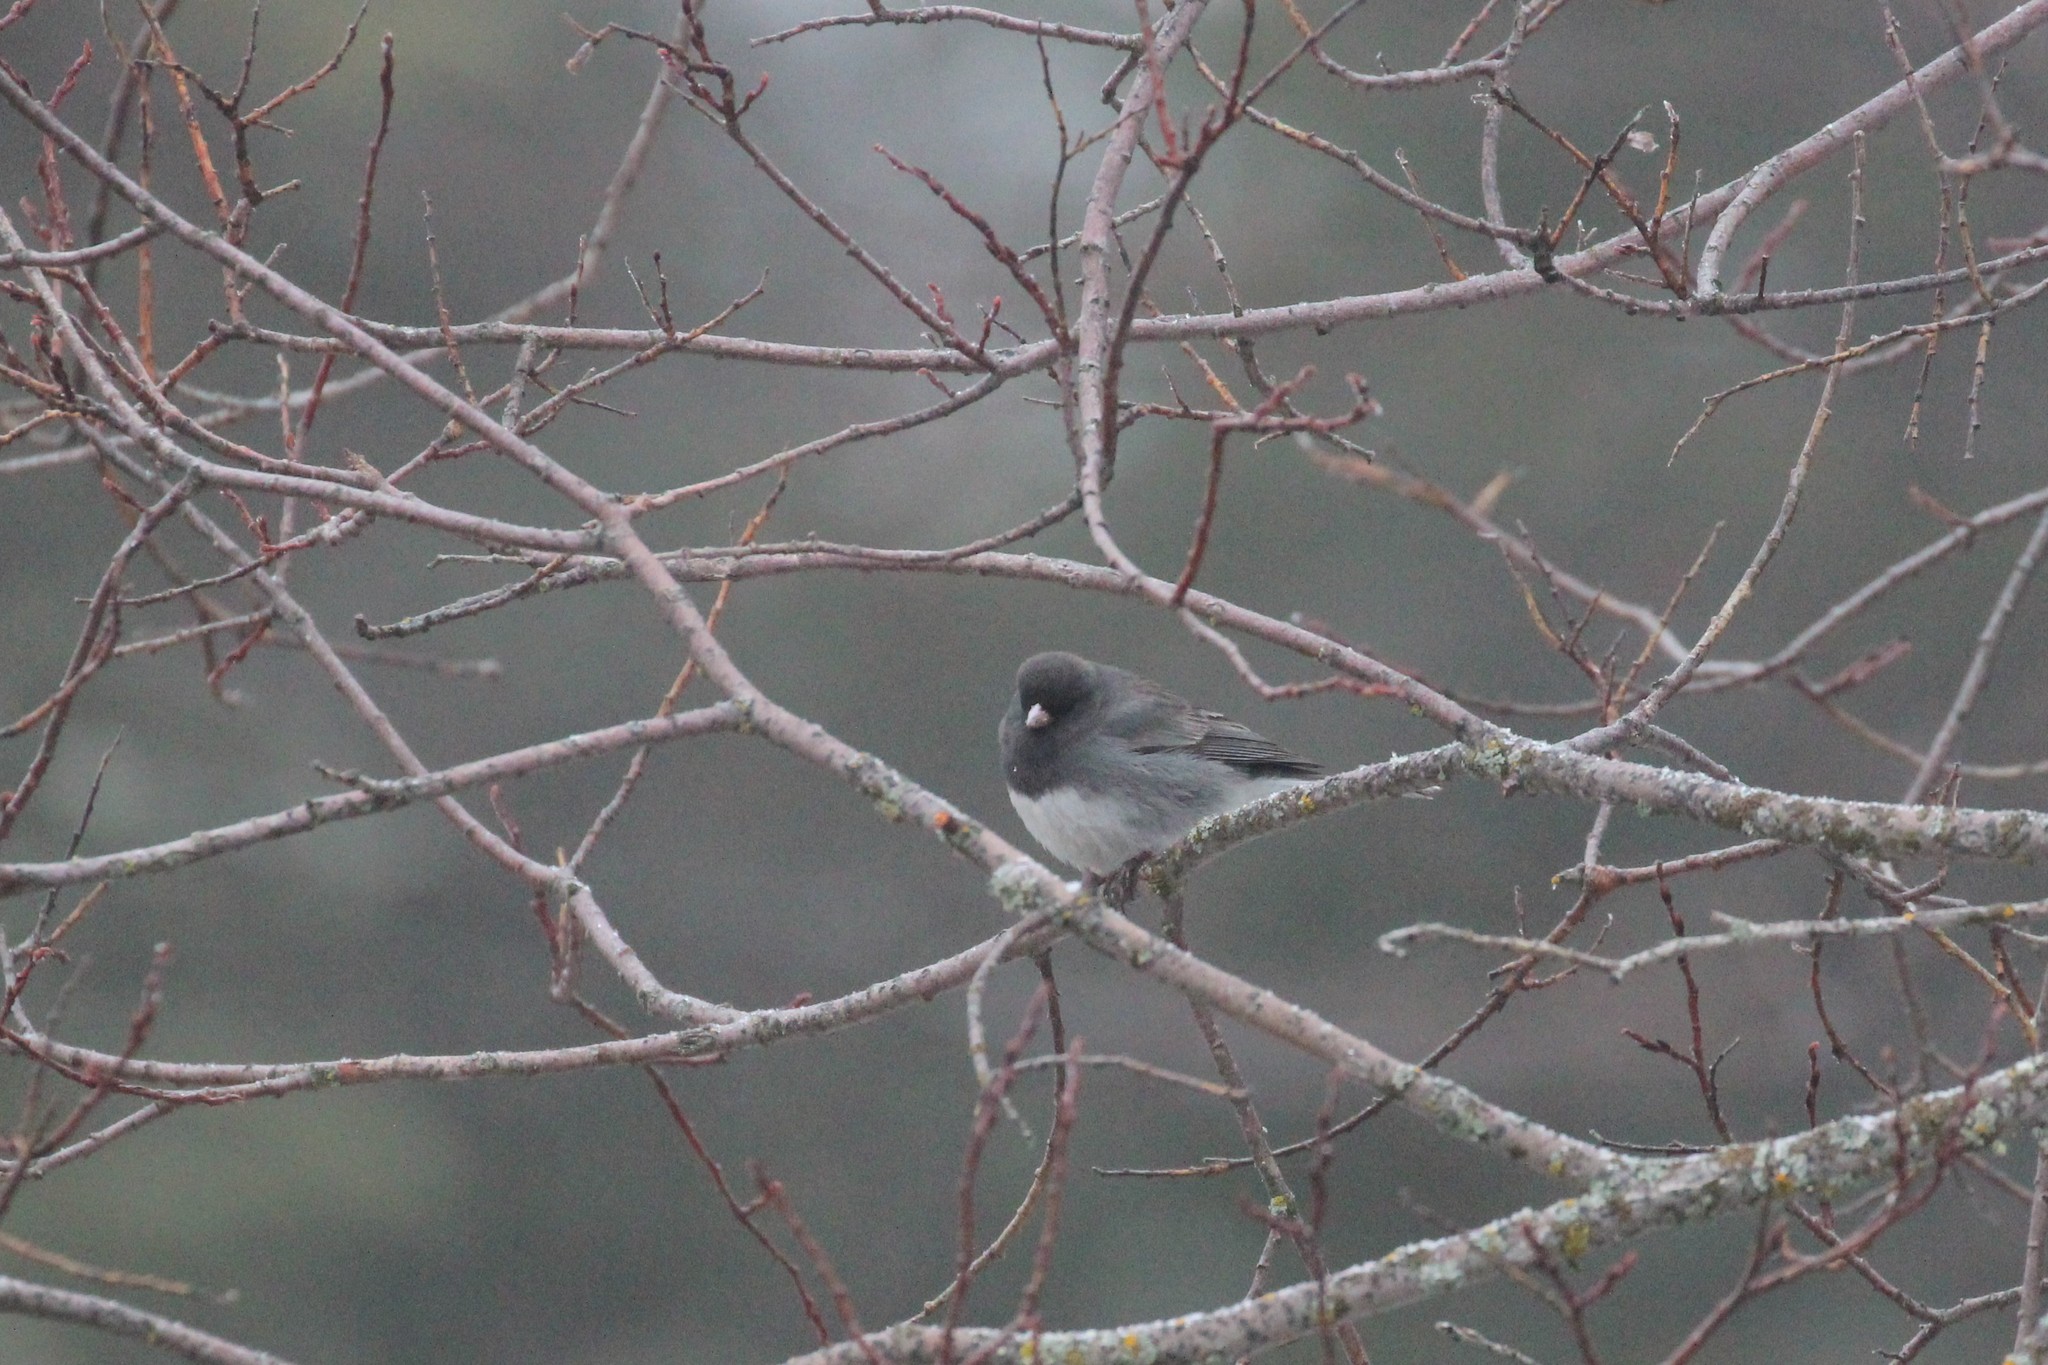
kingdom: Animalia
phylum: Chordata
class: Aves
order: Passeriformes
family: Passerellidae
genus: Junco
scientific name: Junco hyemalis
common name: Dark-eyed junco
